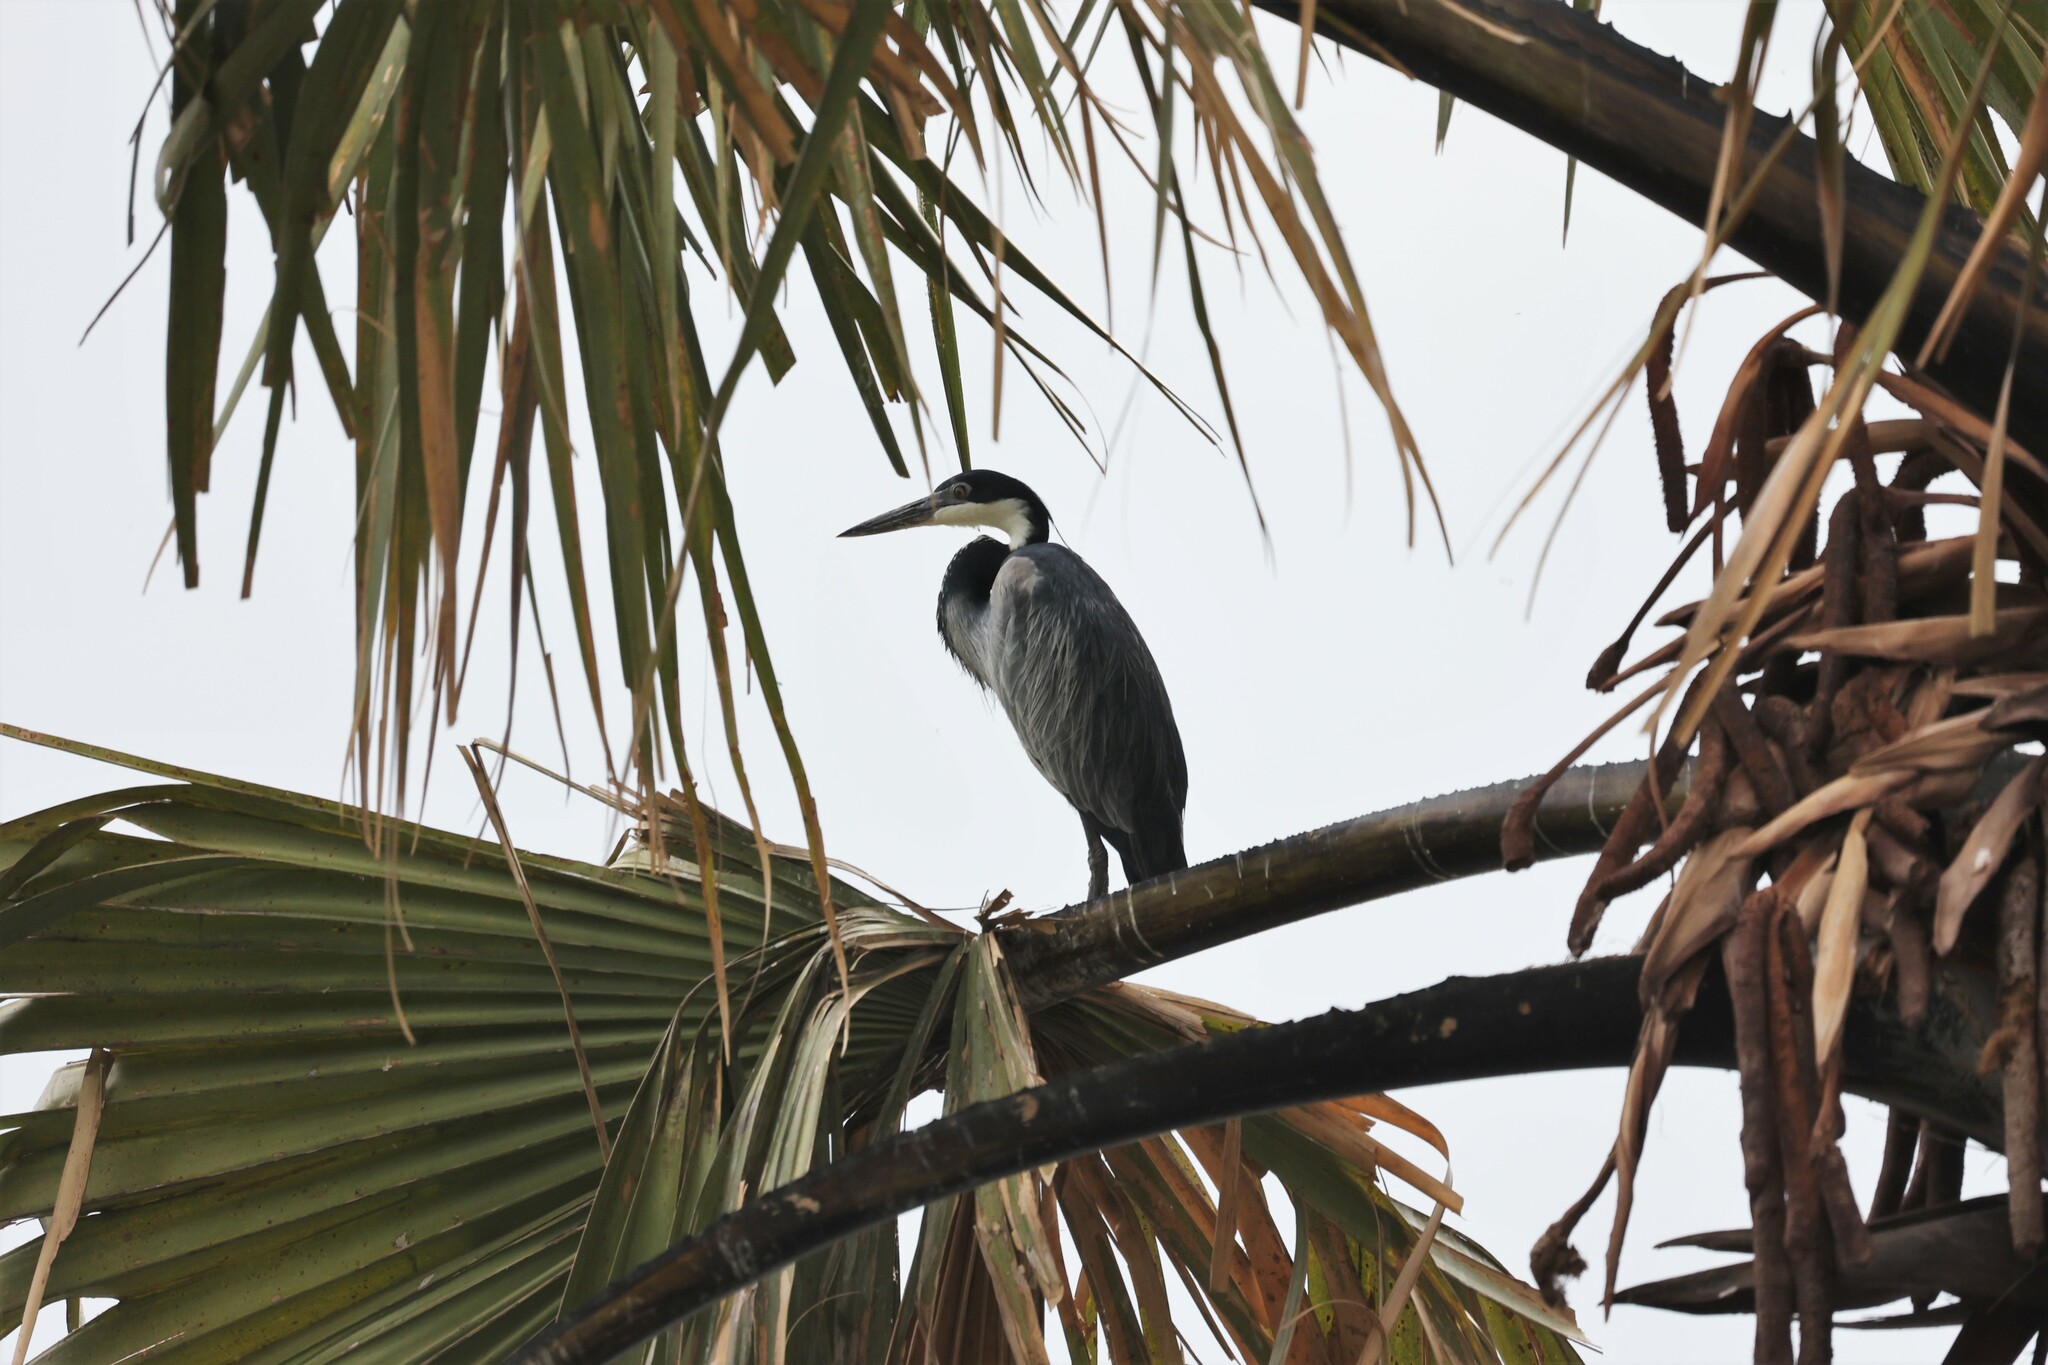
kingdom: Animalia
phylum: Chordata
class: Aves
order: Pelecaniformes
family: Ardeidae
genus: Ardea
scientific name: Ardea melanocephala
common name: Black-headed heron
